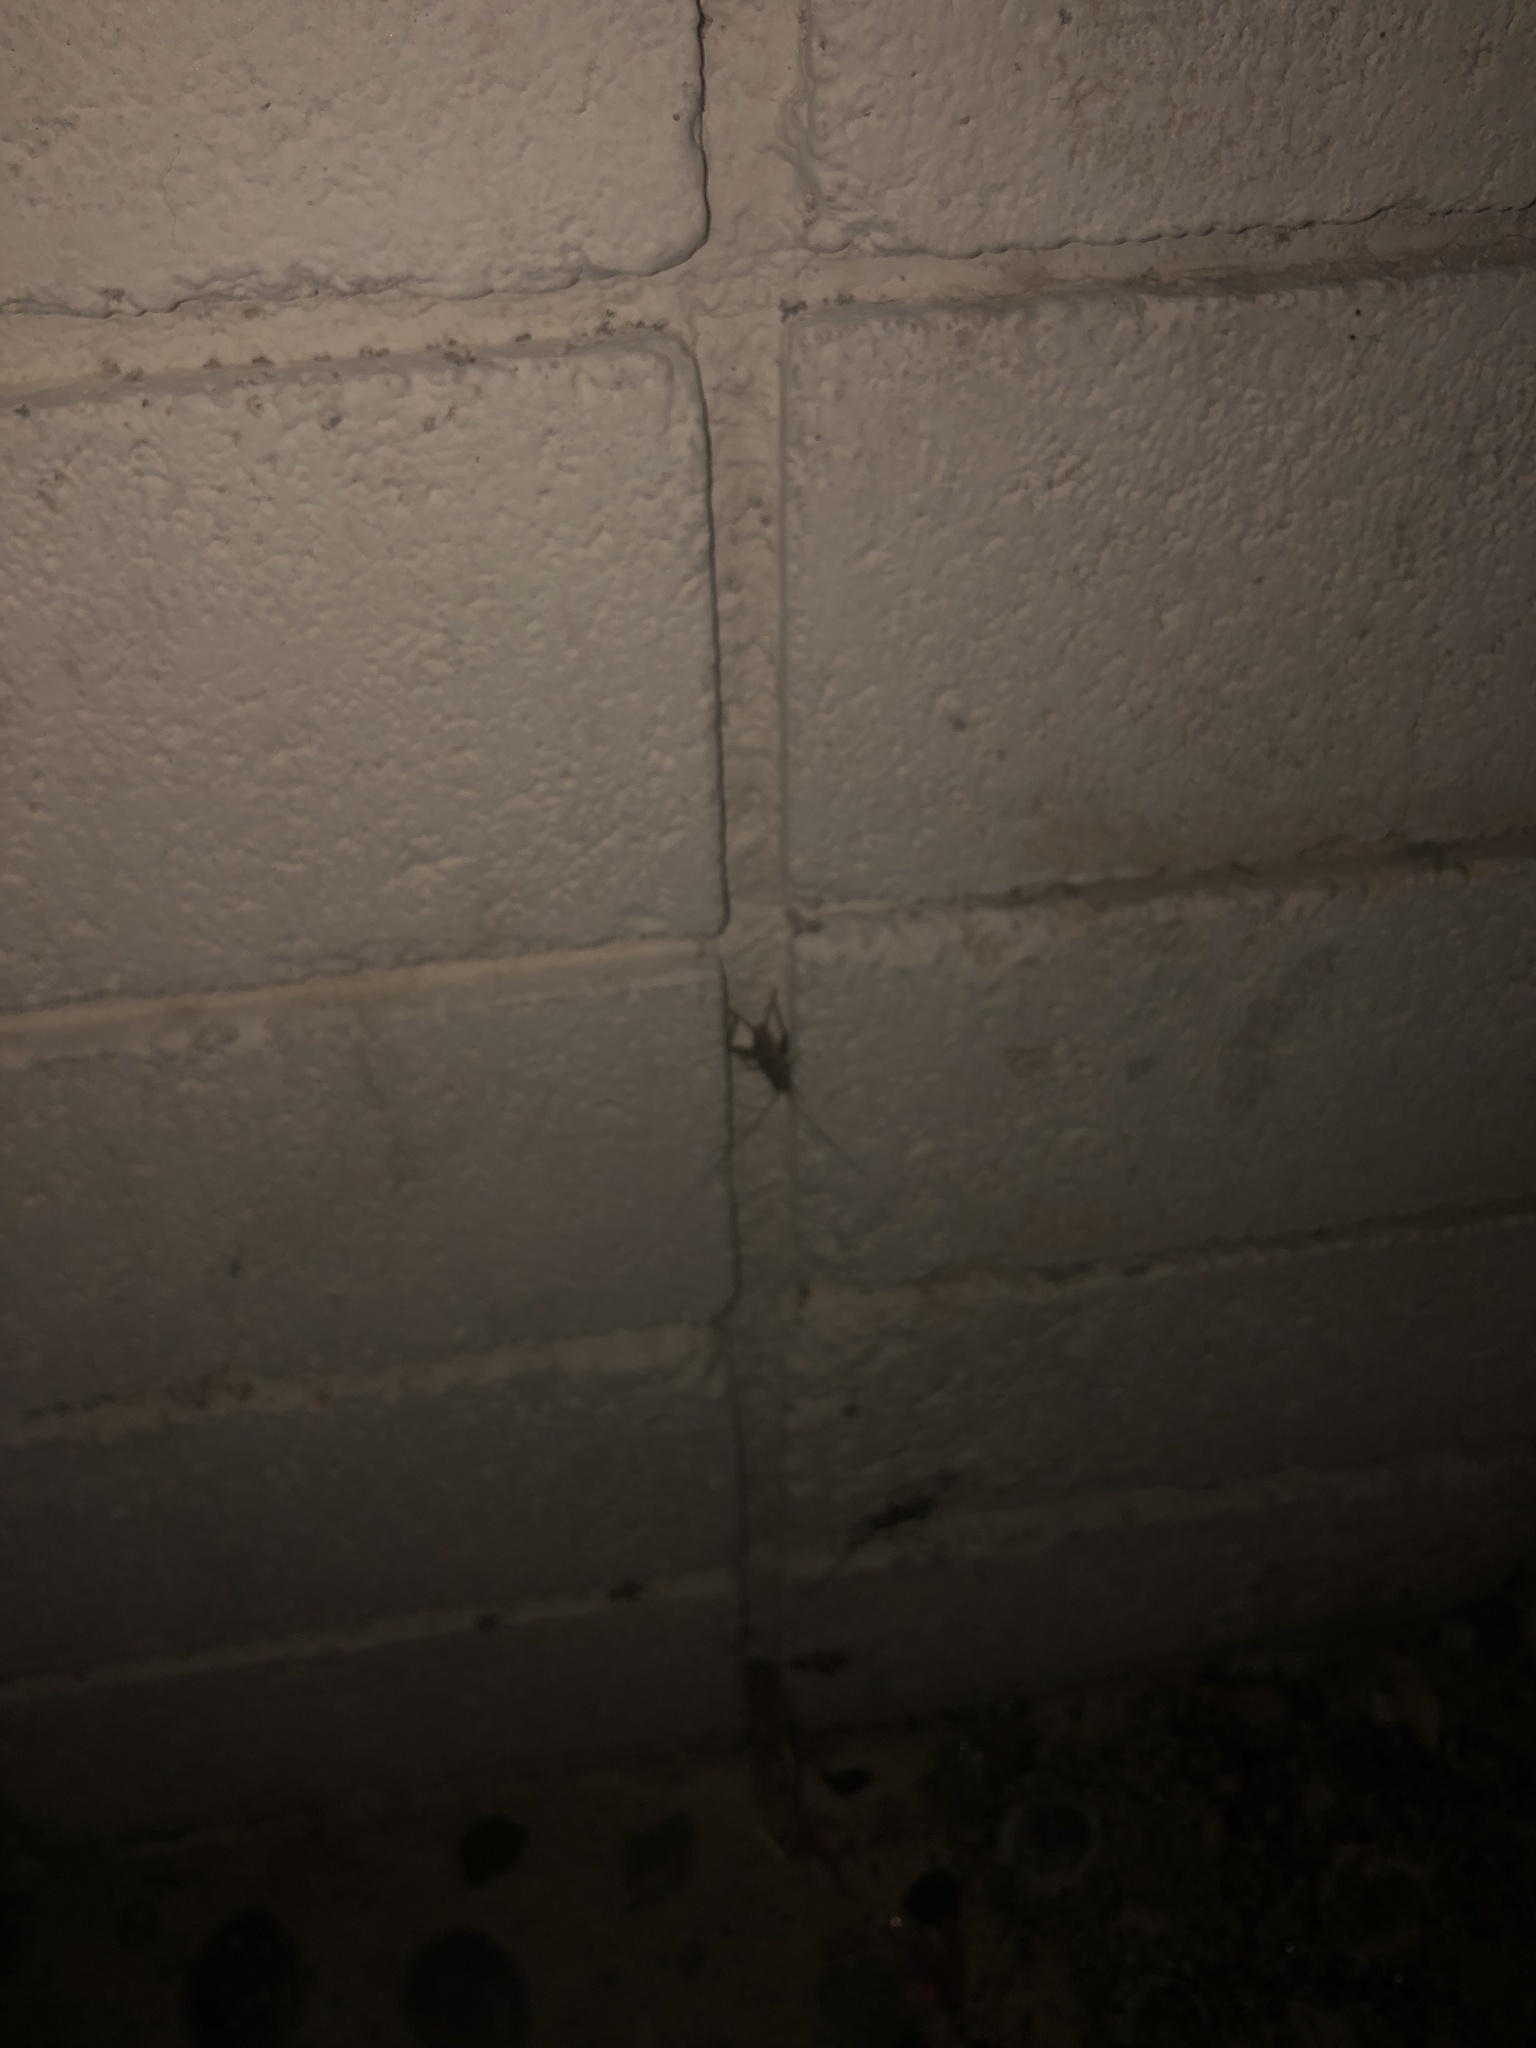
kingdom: Animalia
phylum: Arthropoda
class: Insecta
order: Orthoptera
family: Gryllidae
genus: Gryllodes
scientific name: Gryllodes sigillatus
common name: Tropical house cricket
